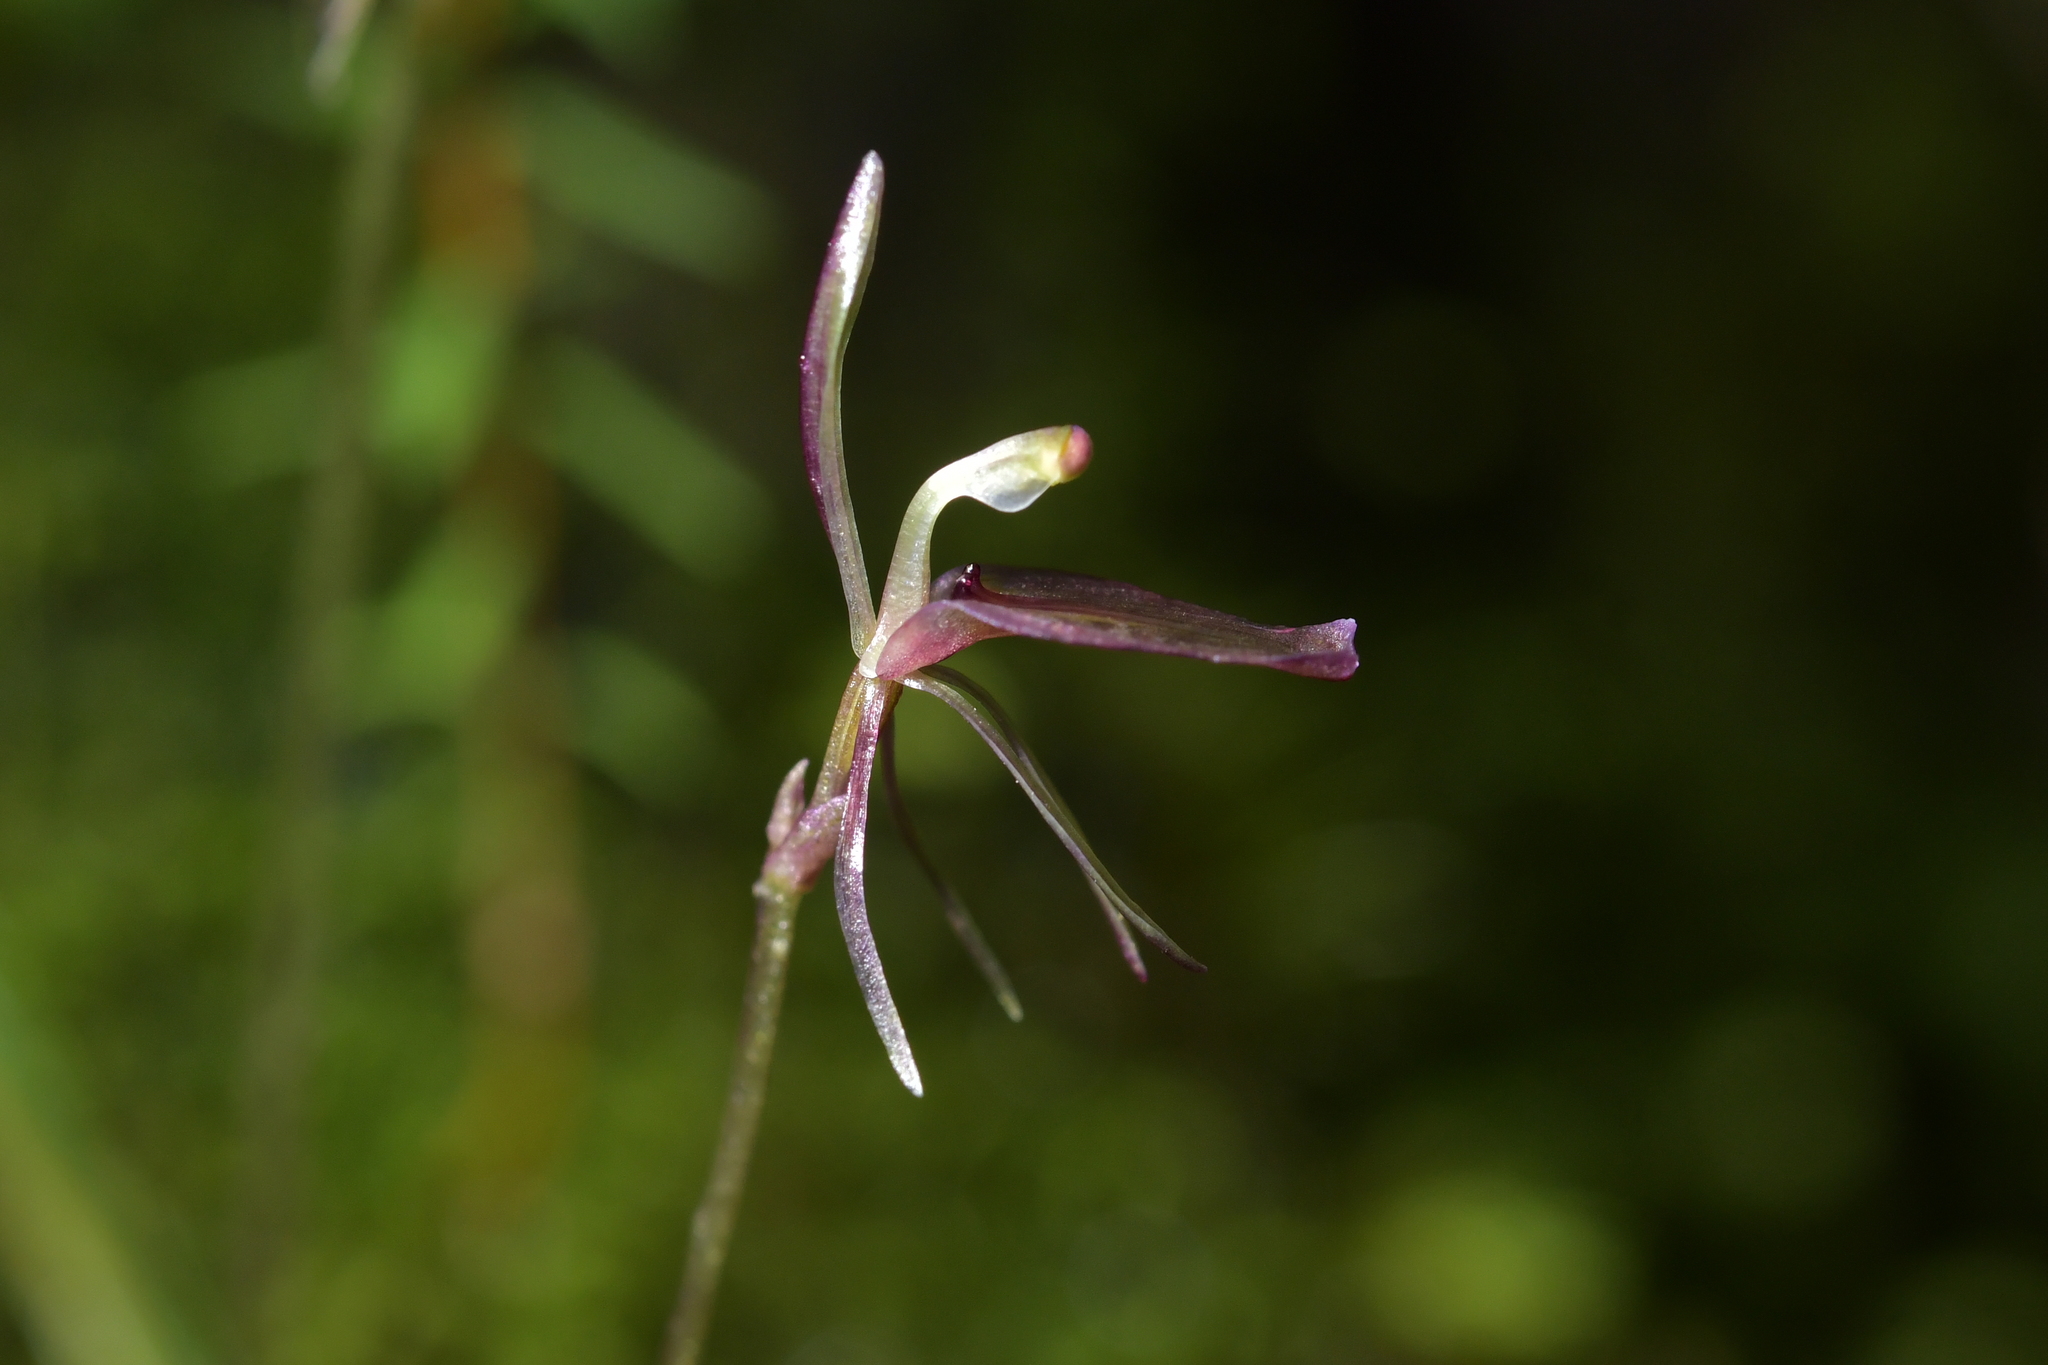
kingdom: Plantae
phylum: Tracheophyta
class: Liliopsida
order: Asparagales
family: Orchidaceae
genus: Cyrtostylis
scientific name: Cyrtostylis rotundifolia
